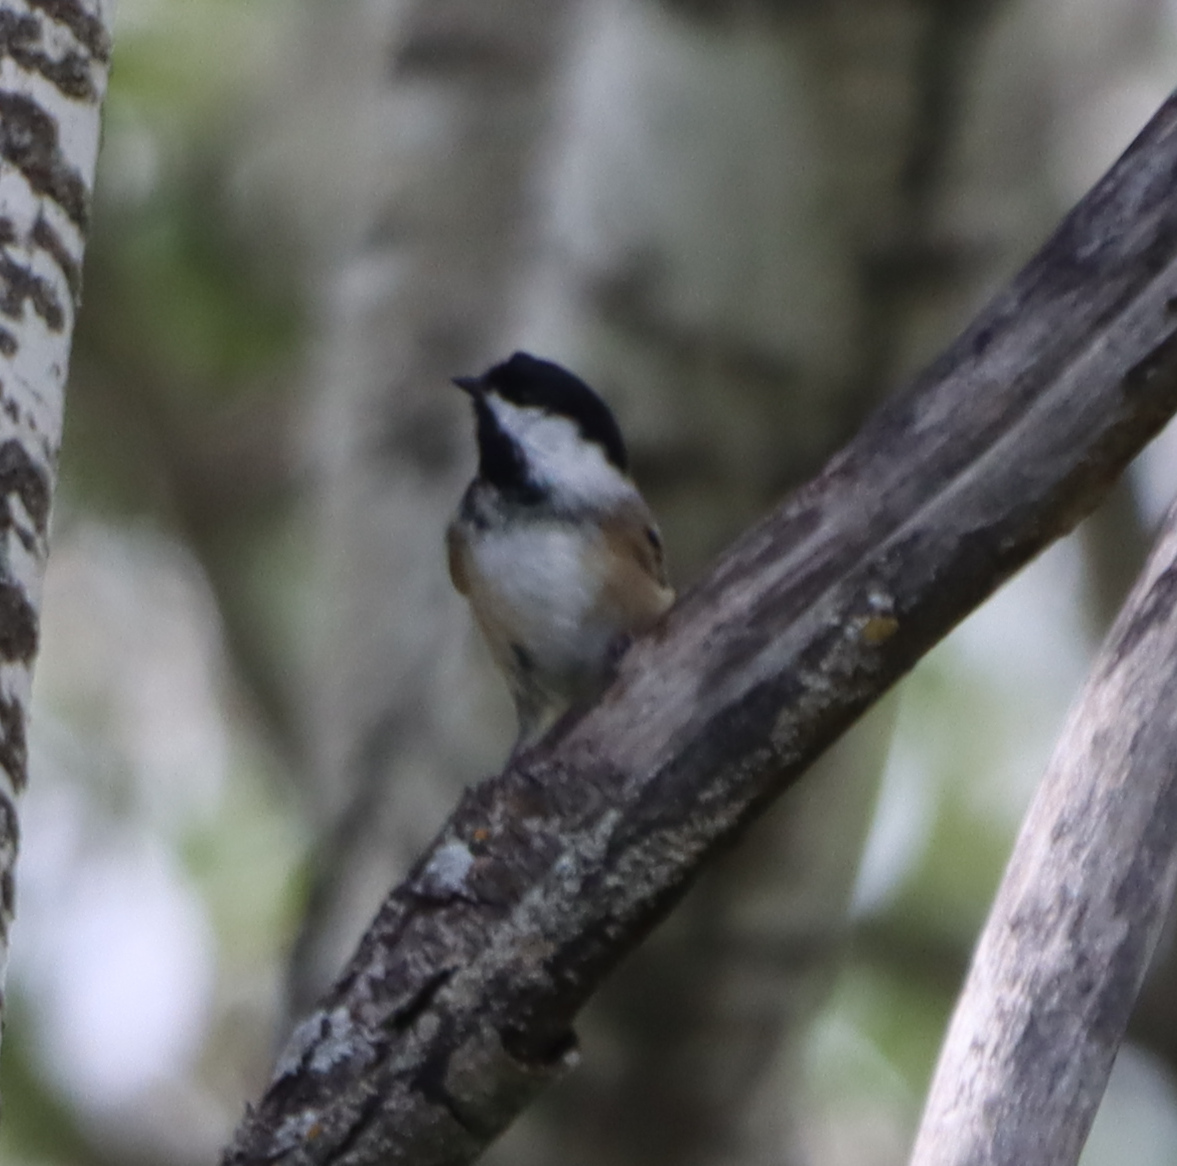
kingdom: Animalia
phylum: Chordata
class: Aves
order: Passeriformes
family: Paridae
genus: Poecile
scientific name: Poecile atricapillus
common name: Black-capped chickadee
